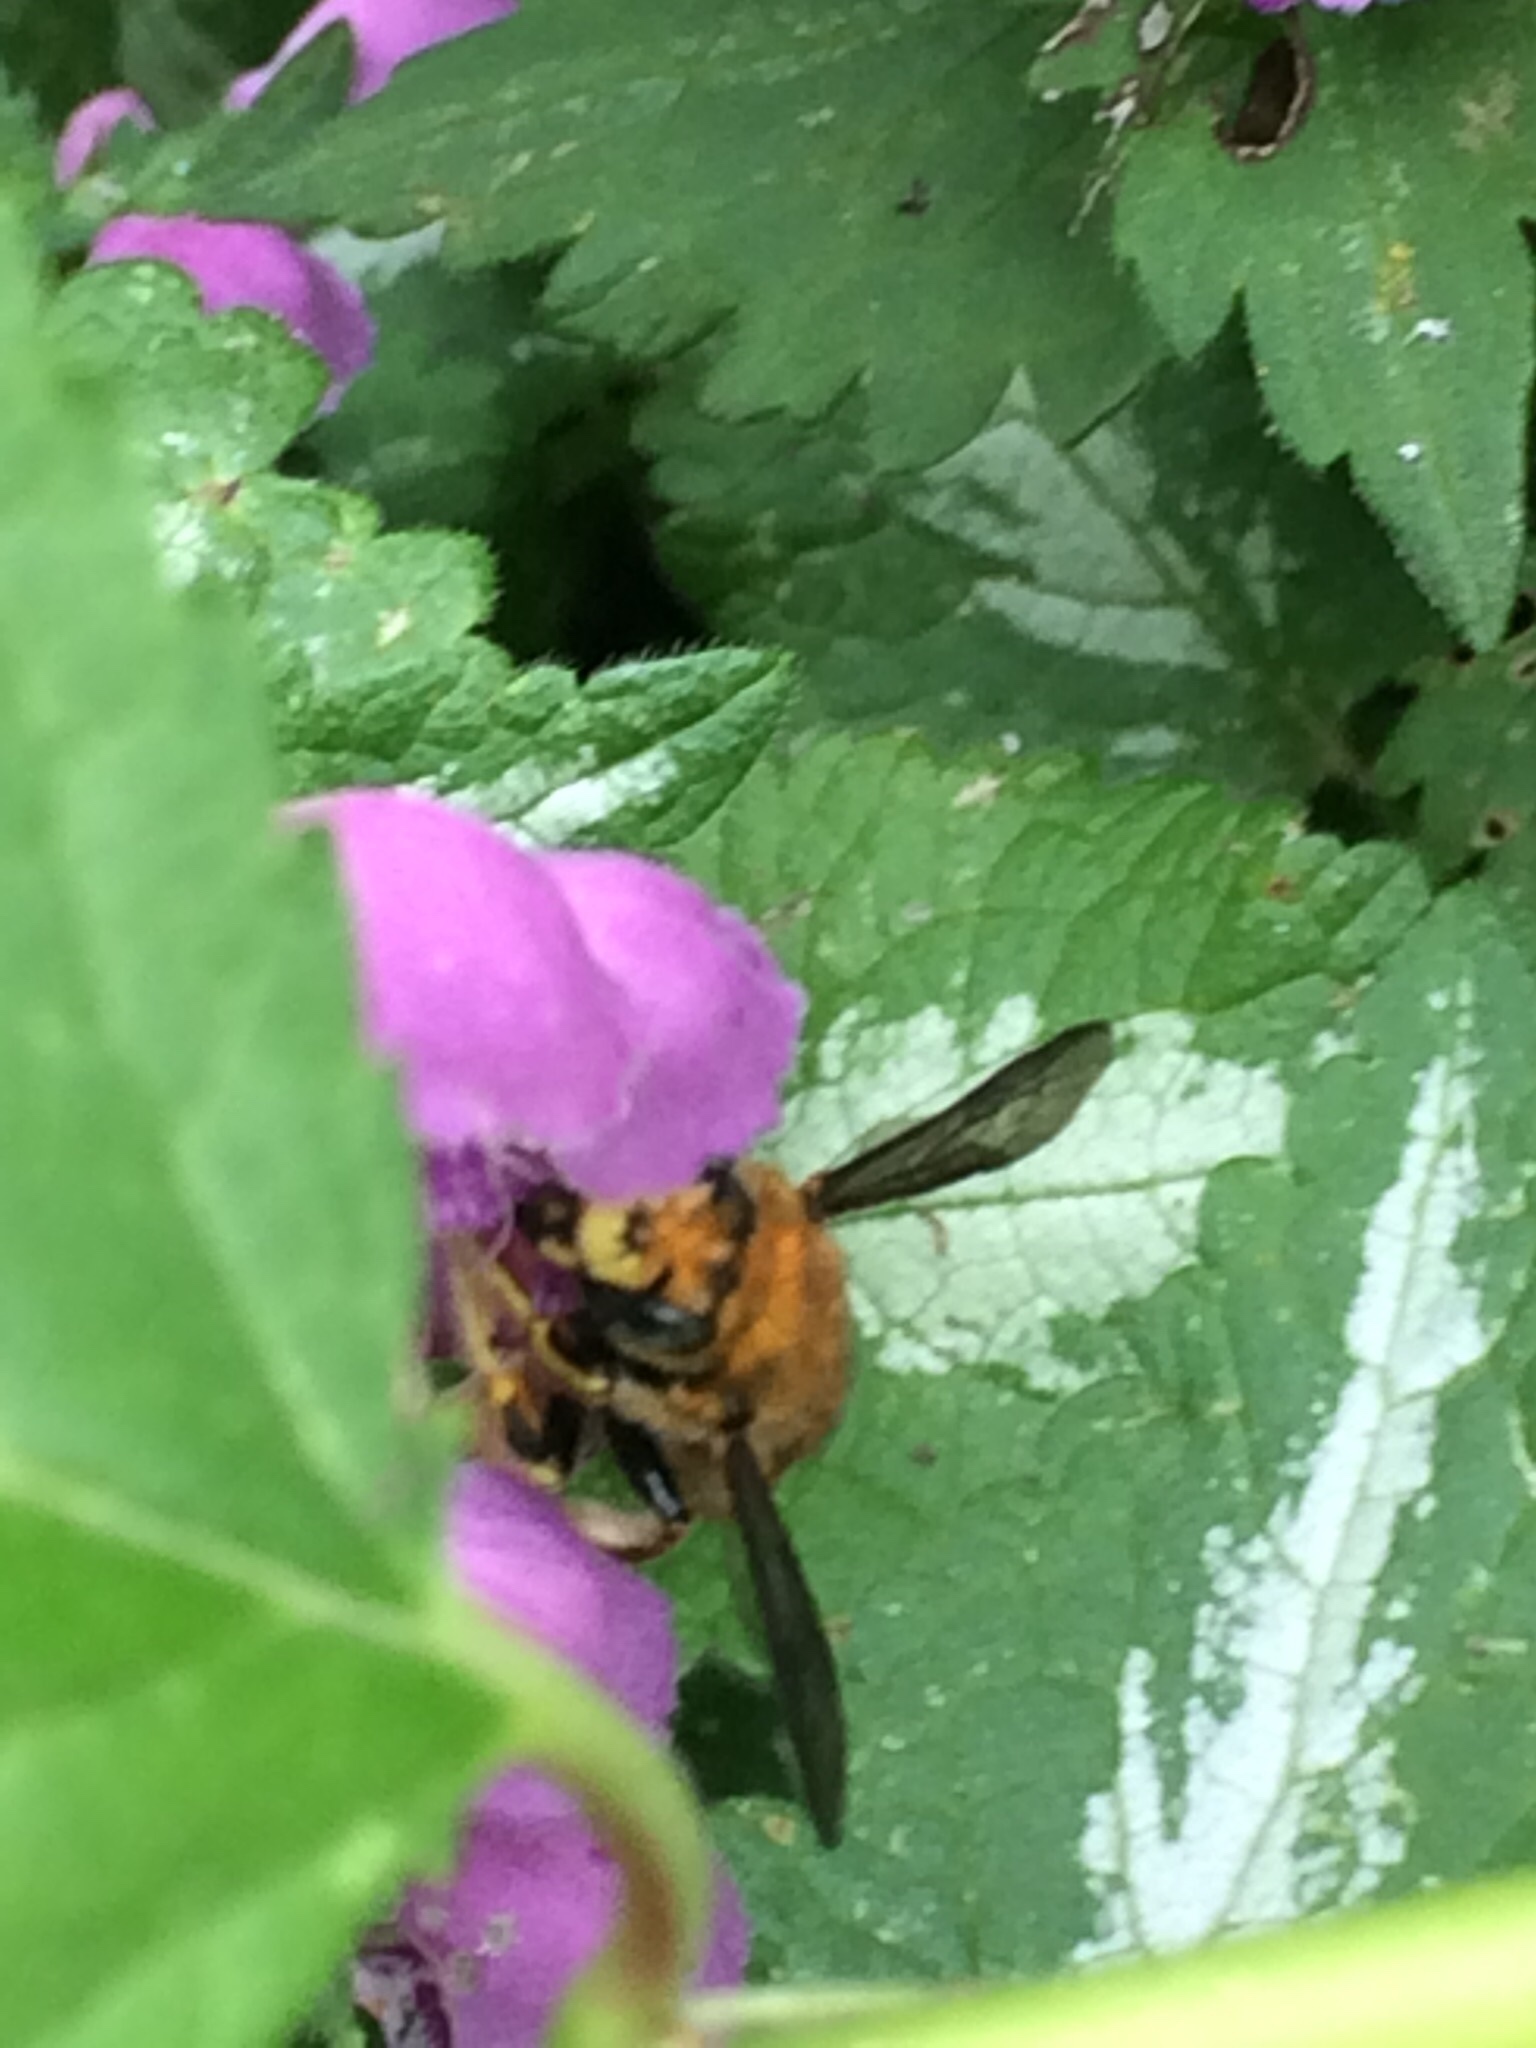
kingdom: Animalia
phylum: Arthropoda
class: Insecta
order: Hymenoptera
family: Megachilidae
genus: Anthidium
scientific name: Anthidium manicatum
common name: Wool carder bee
